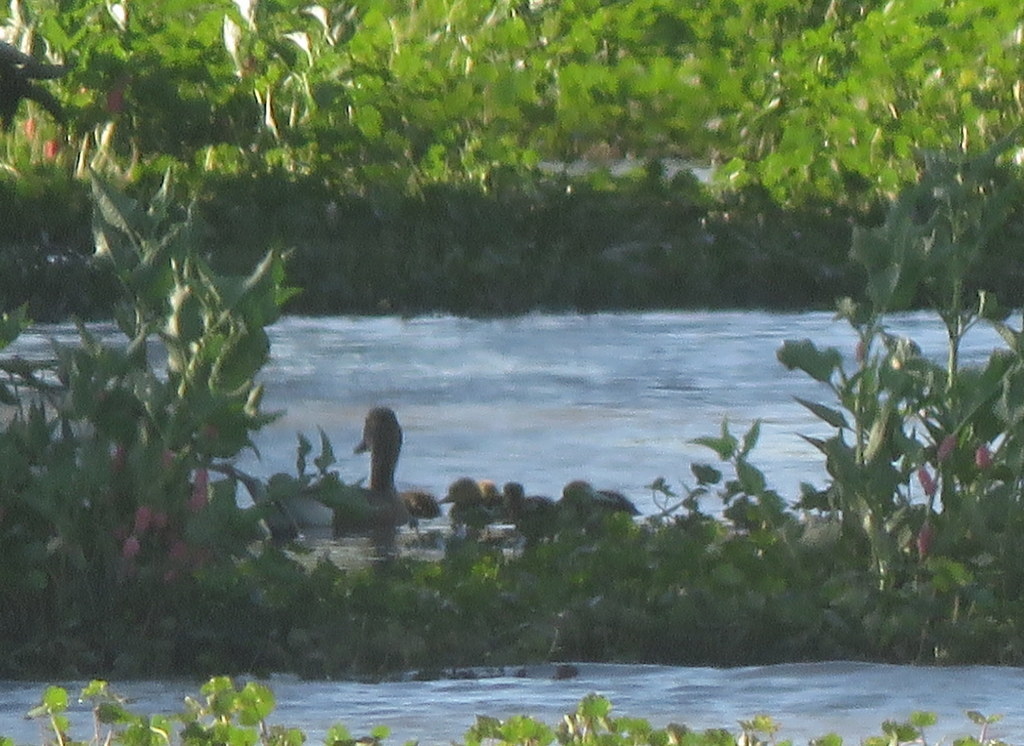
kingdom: Animalia
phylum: Chordata
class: Aves
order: Anseriformes
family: Anatidae
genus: Netta
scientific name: Netta peposaca
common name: Rosy-billed pochard
